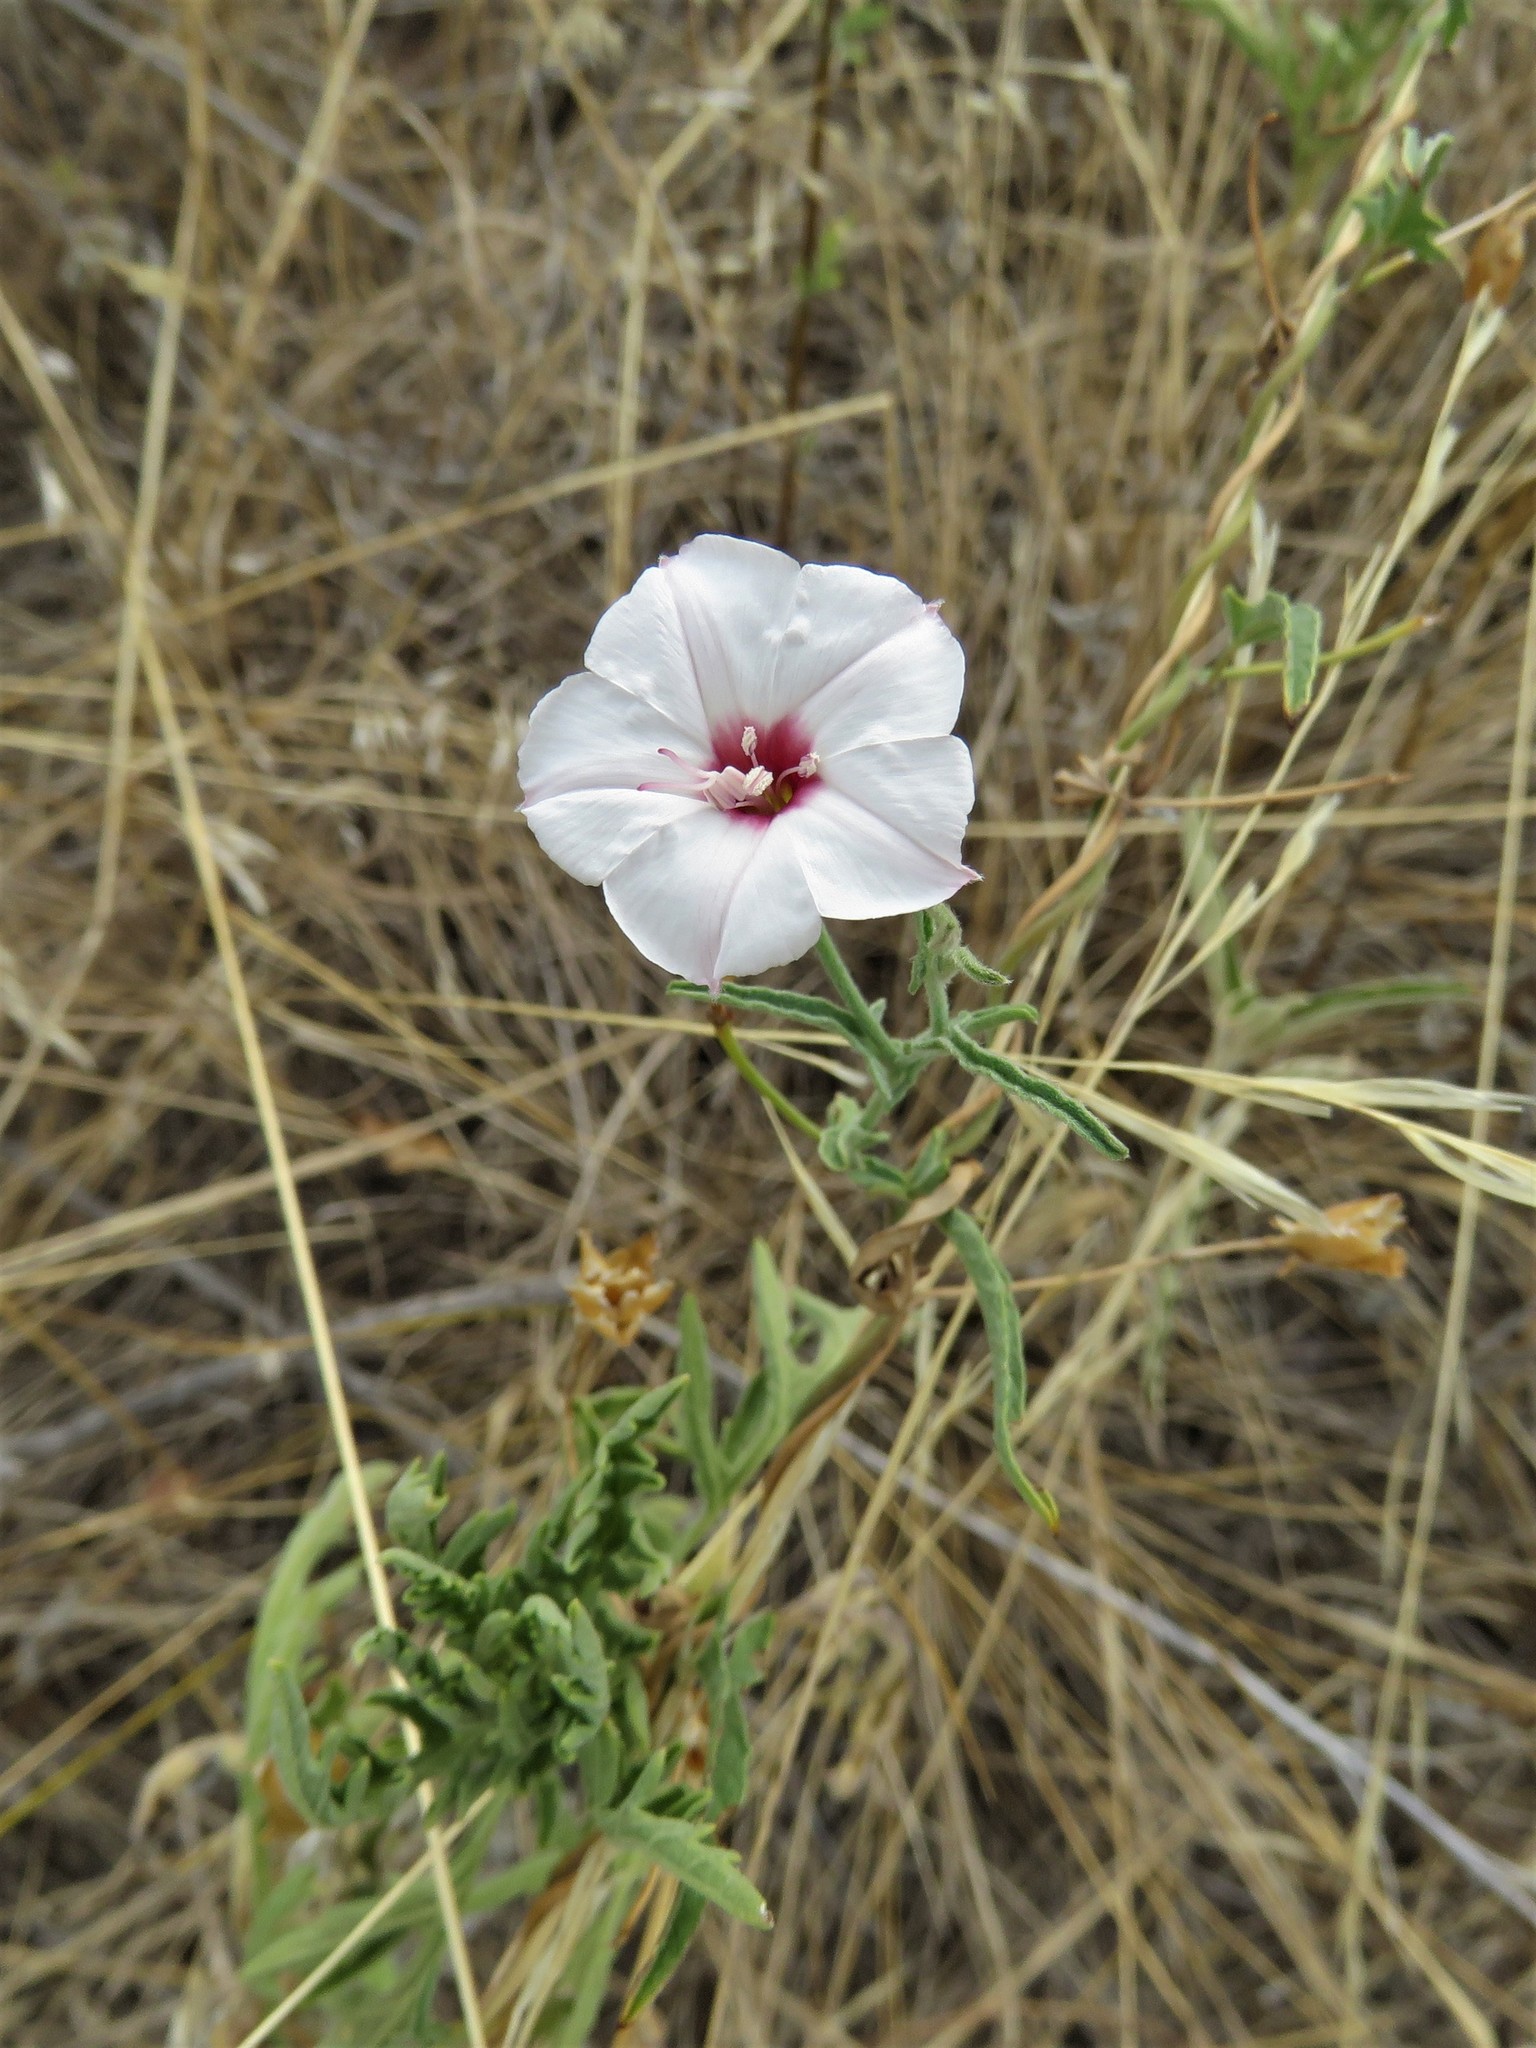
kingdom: Plantae
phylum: Tracheophyta
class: Magnoliopsida
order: Solanales
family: Convolvulaceae
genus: Convolvulus
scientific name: Convolvulus equitans
